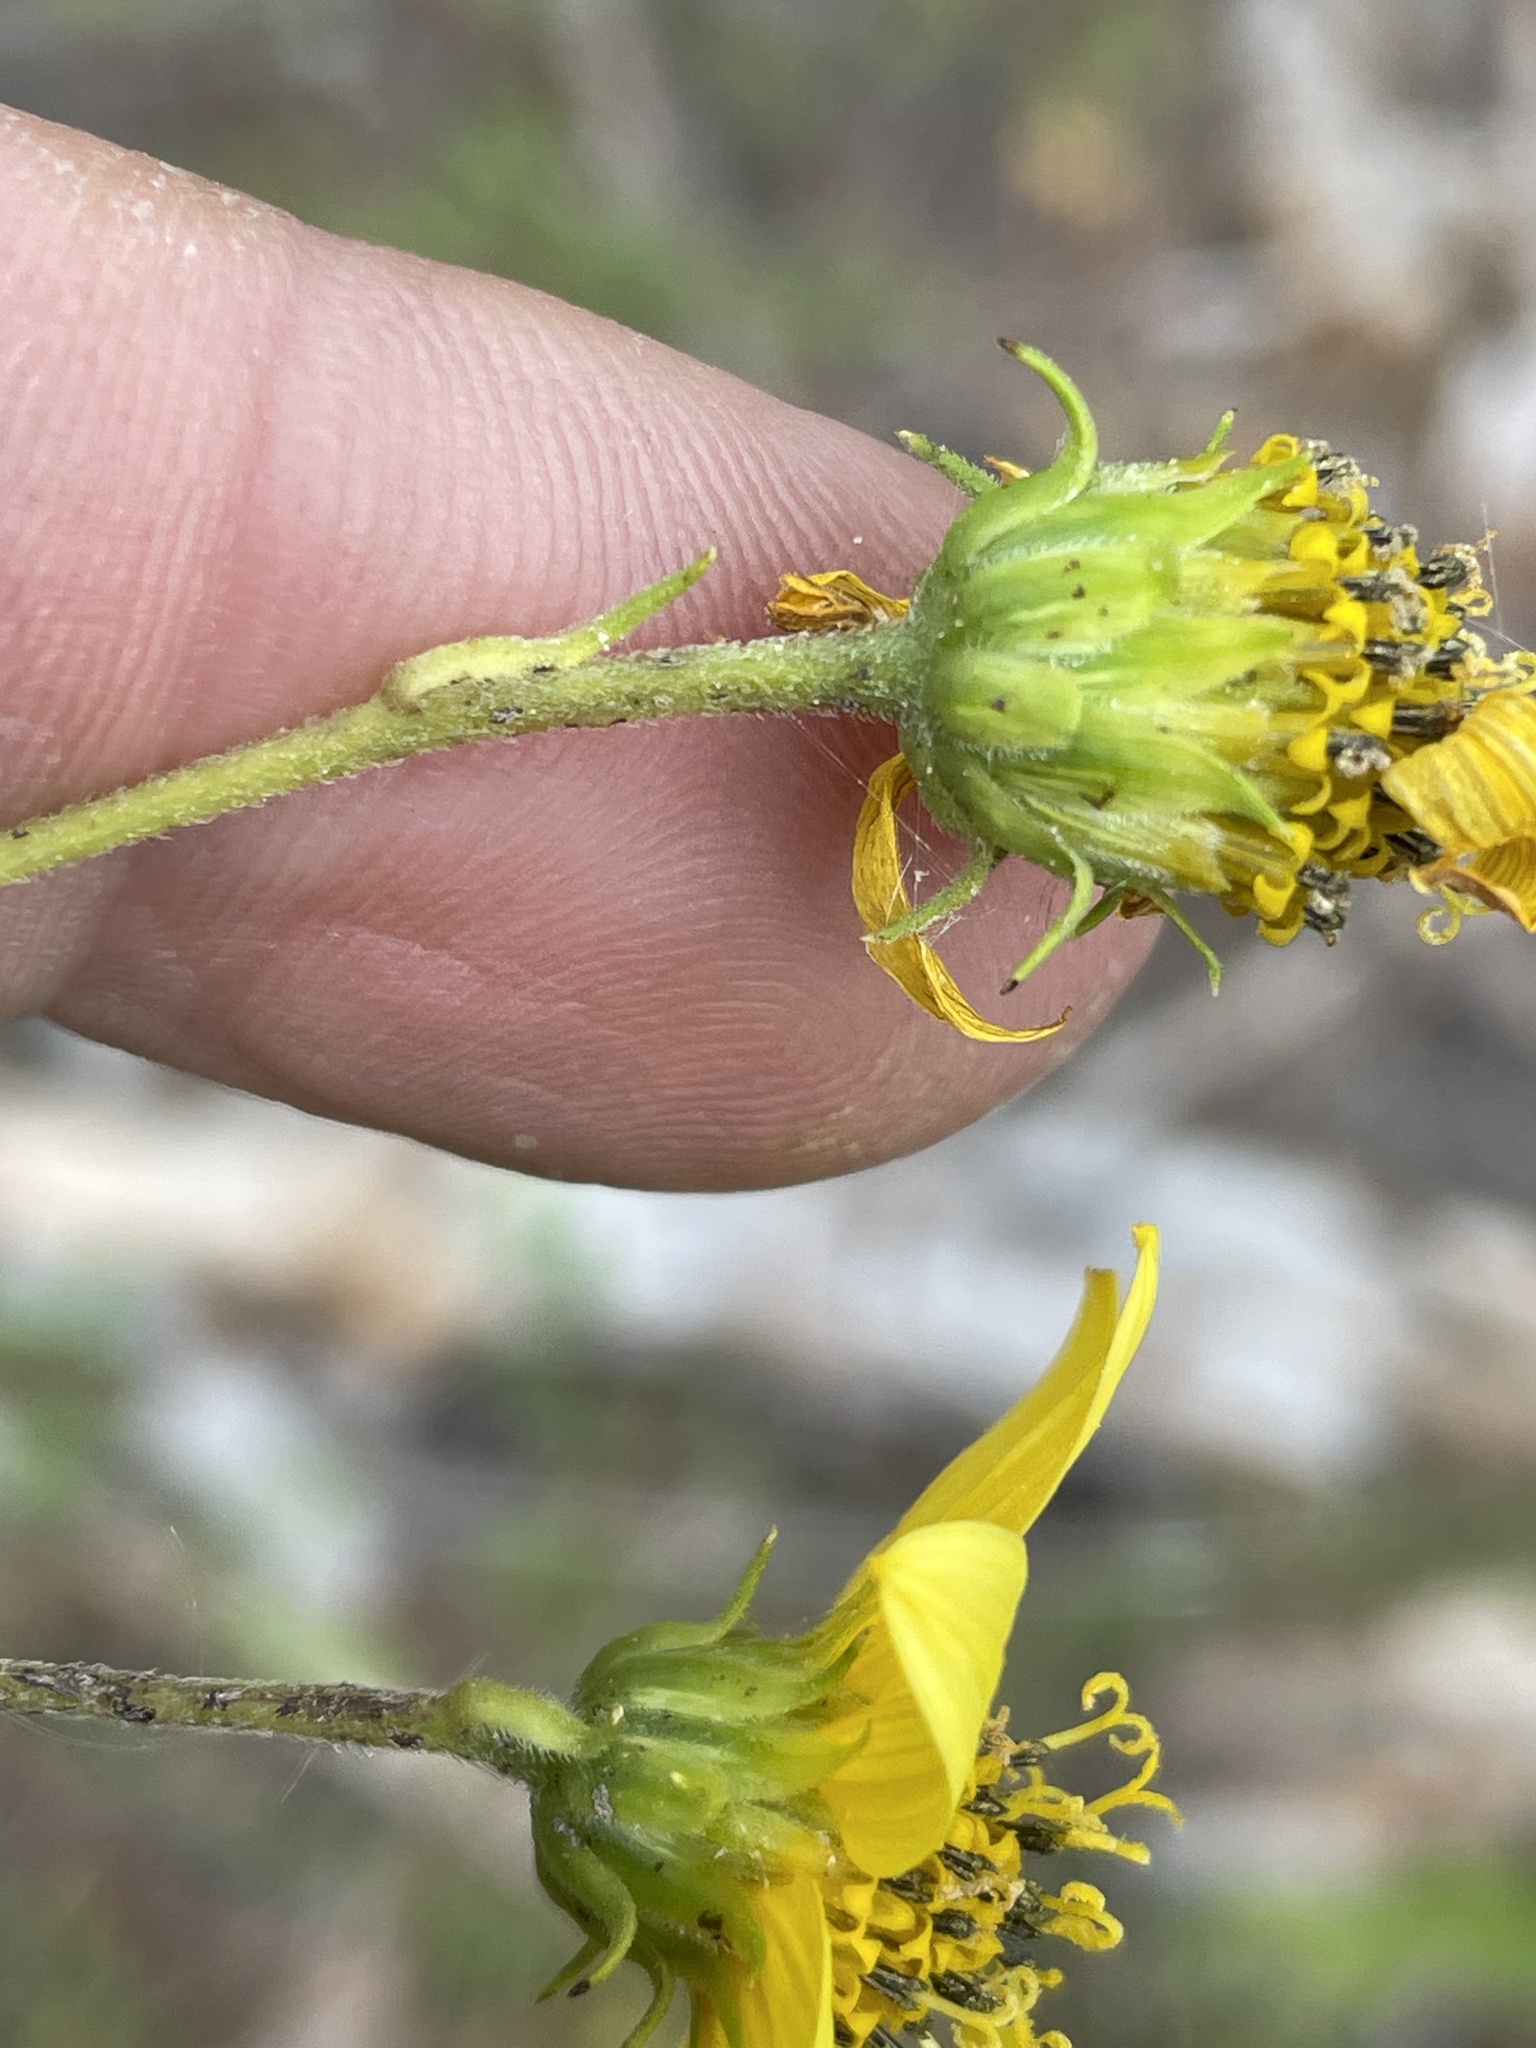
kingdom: Plantae
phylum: Tracheophyta
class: Magnoliopsida
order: Asterales
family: Asteraceae
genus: Helianthus
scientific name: Helianthus microcephalus
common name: Woodland sunflower
